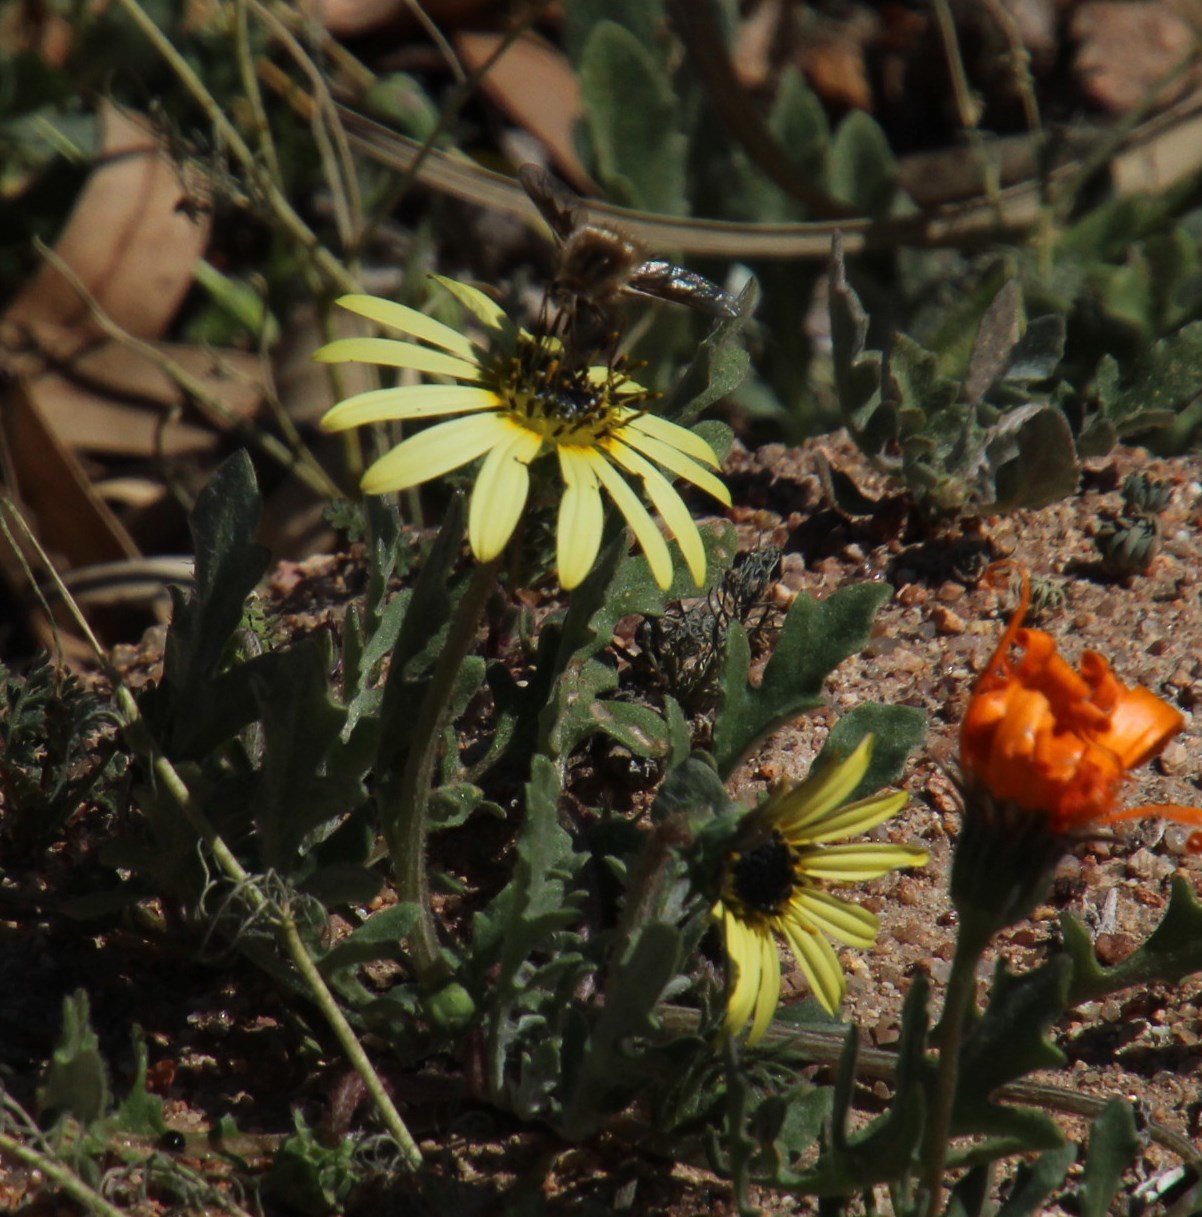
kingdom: Plantae
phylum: Tracheophyta
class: Magnoliopsida
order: Asterales
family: Asteraceae
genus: Arctotheca
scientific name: Arctotheca calendula
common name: Capeweed
